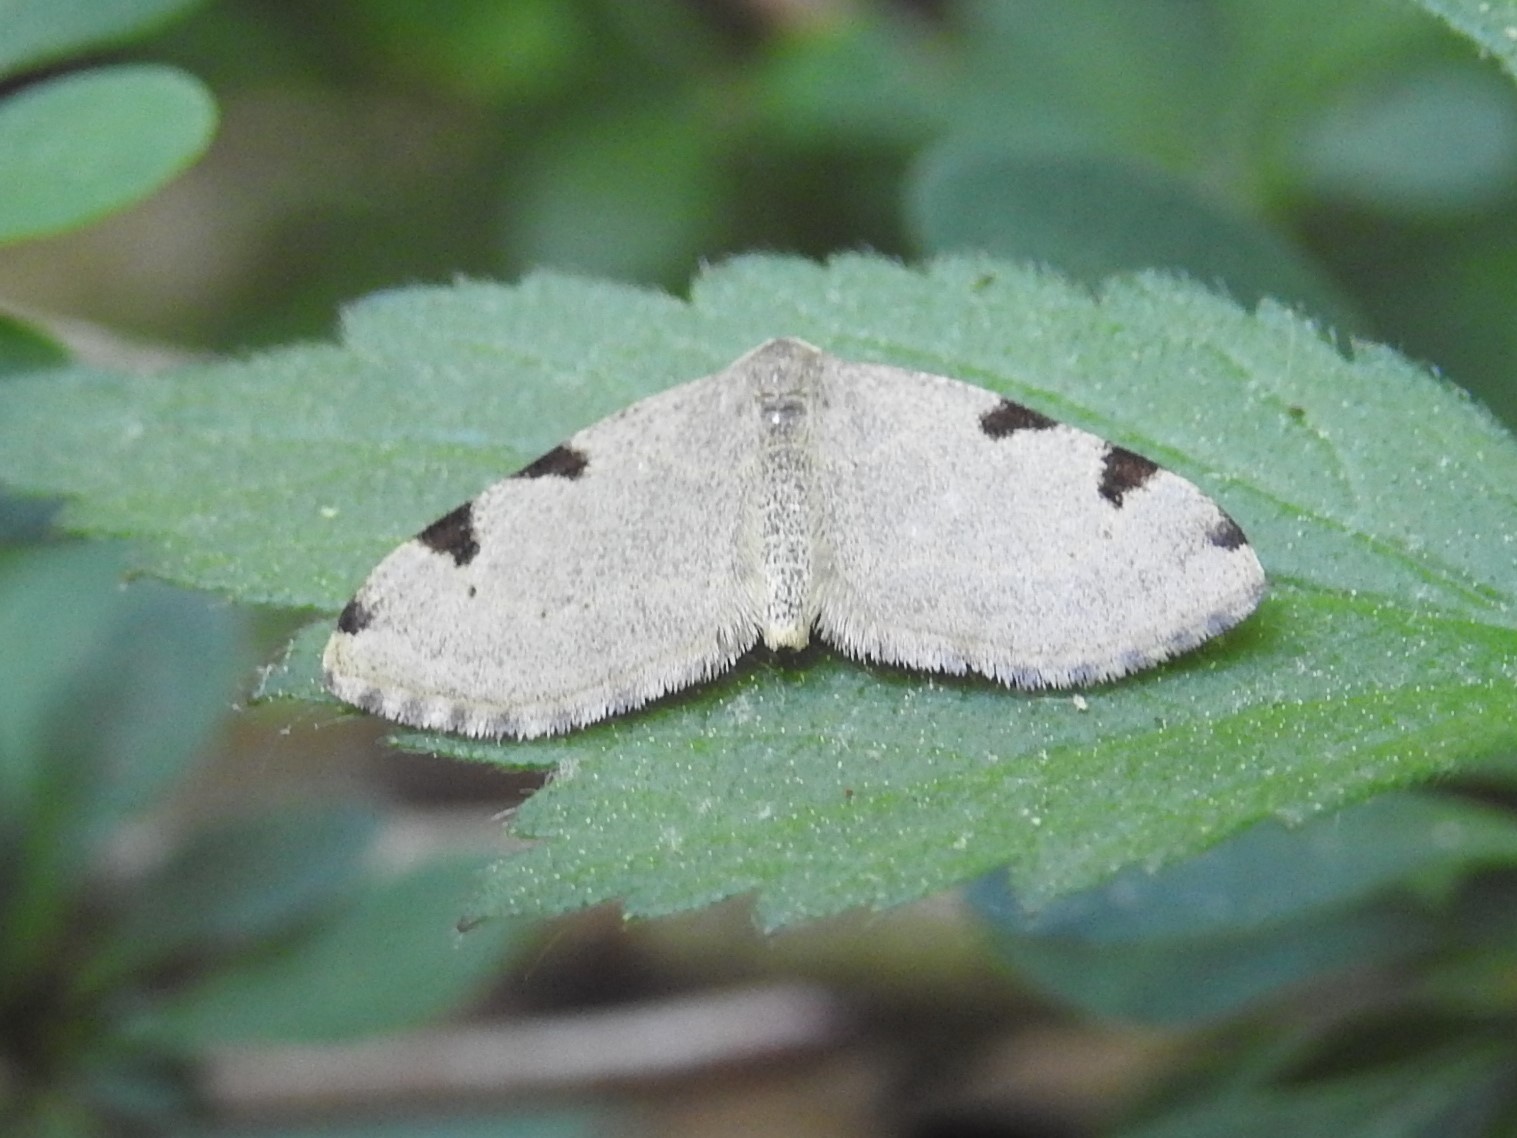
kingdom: Animalia
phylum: Arthropoda
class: Insecta
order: Lepidoptera
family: Geometridae
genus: Heterophleps
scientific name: Heterophleps triguttaria
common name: Three-spotted fillip
